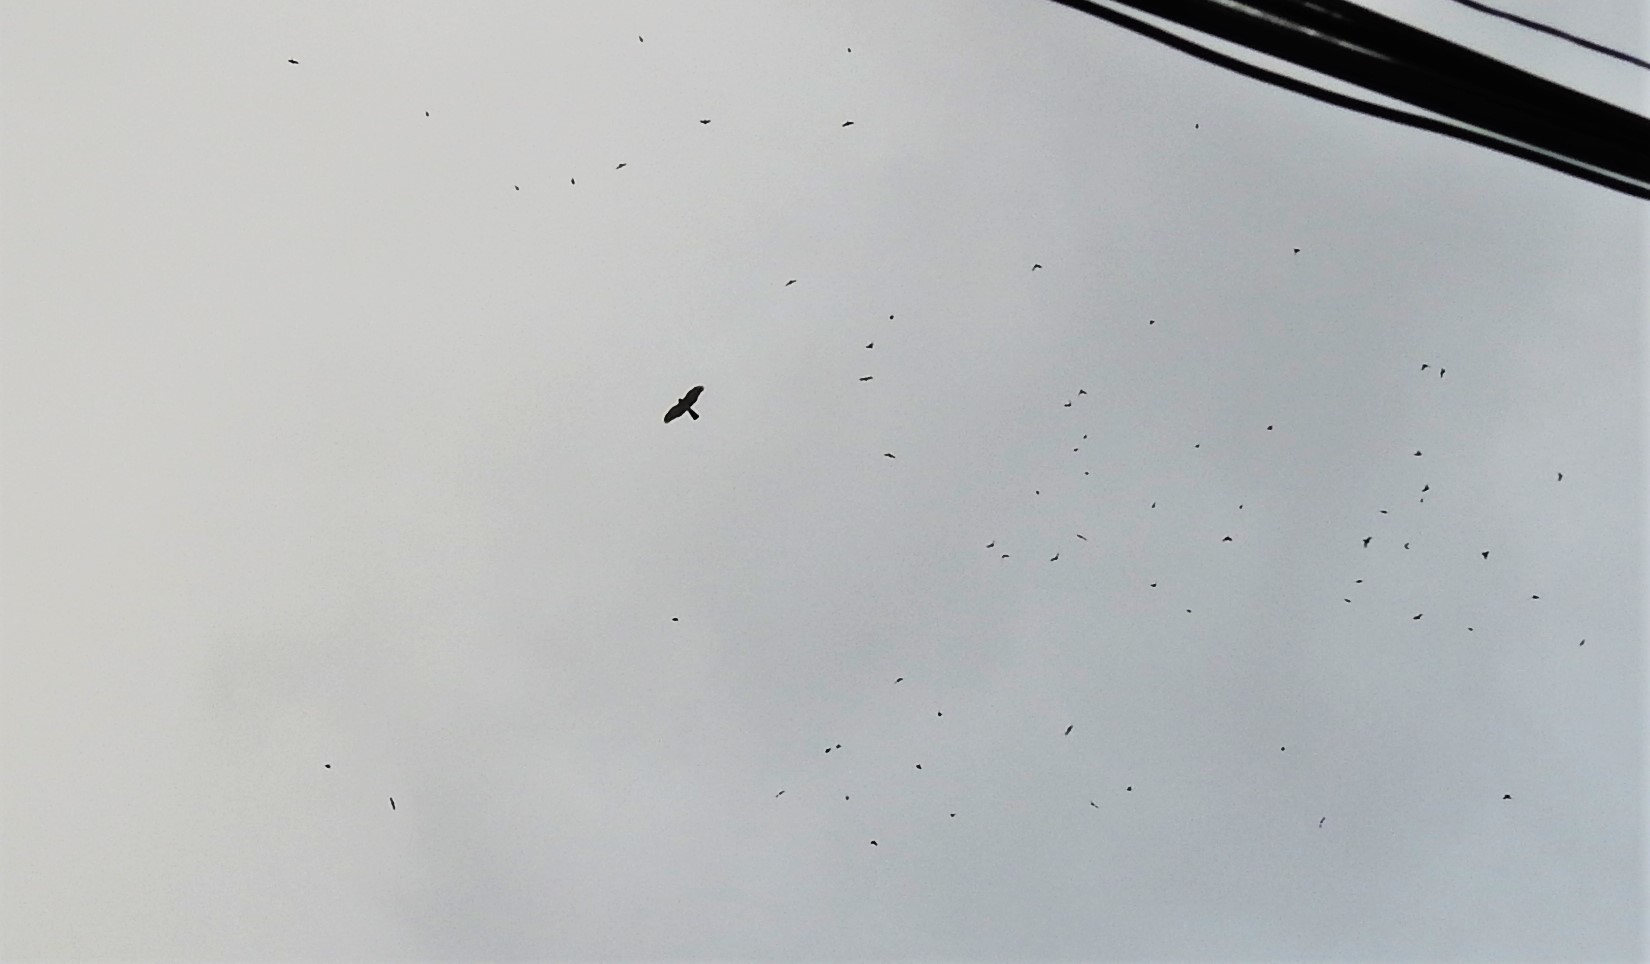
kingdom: Animalia
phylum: Chordata
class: Aves
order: Accipitriformes
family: Accipitridae
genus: Accipiter
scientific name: Accipiter nisus
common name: Eurasian sparrowhawk
